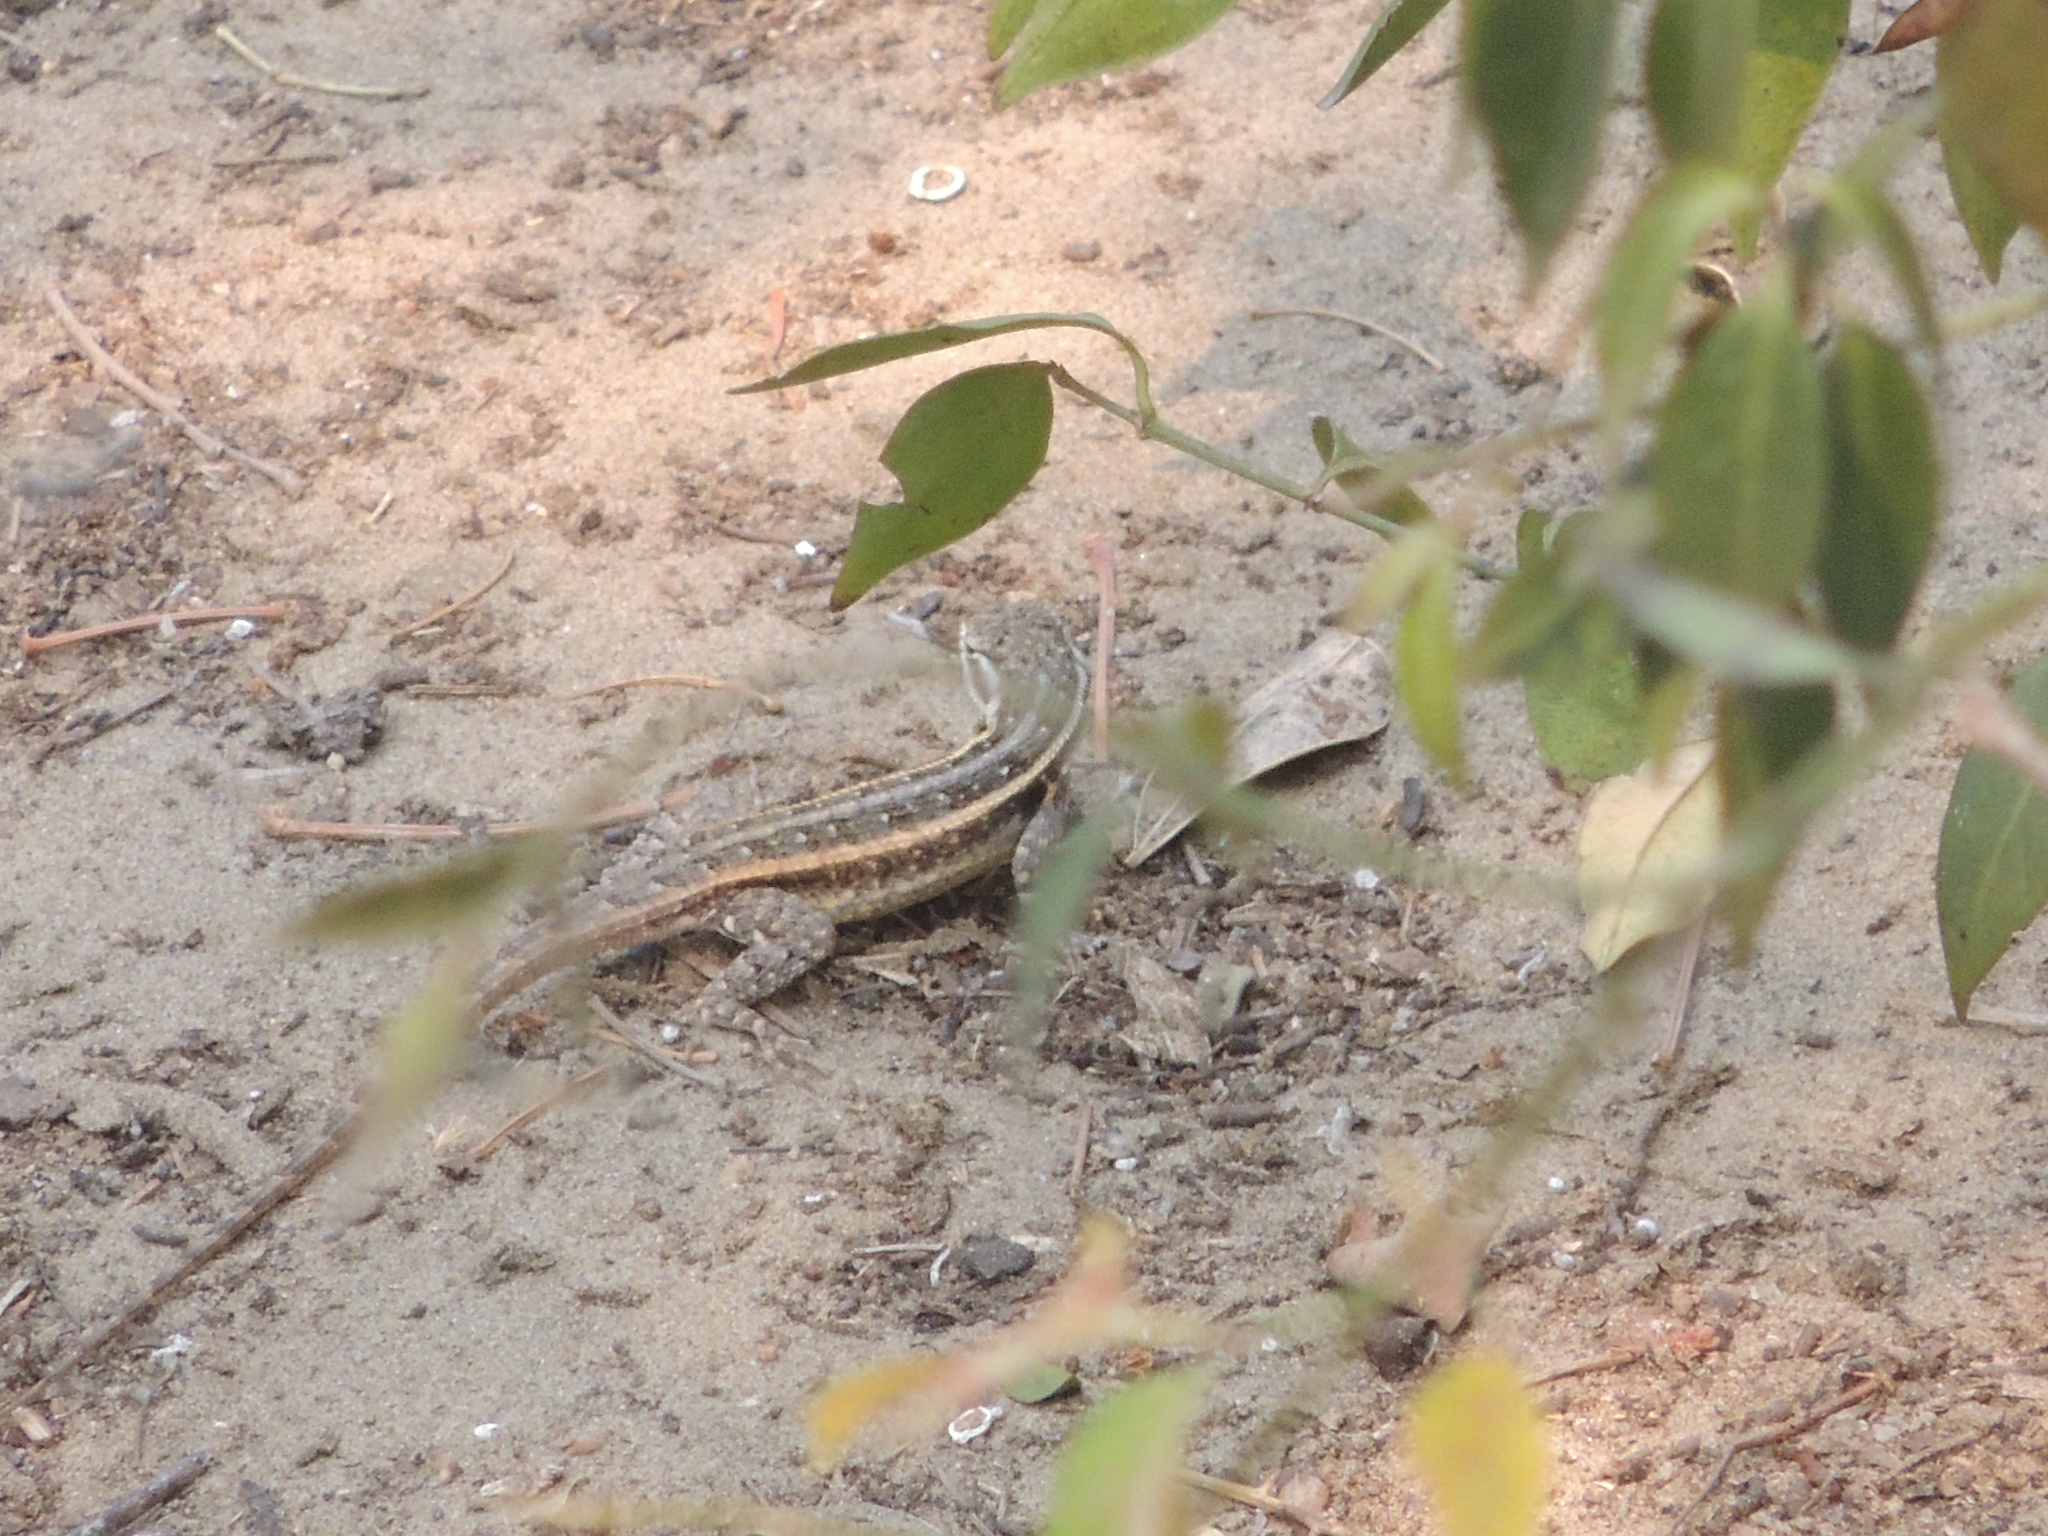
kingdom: Animalia
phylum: Chordata
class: Squamata
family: Phrynosomatidae
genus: Sceloporus
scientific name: Sceloporus variabilis
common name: Rosebelly lizard
